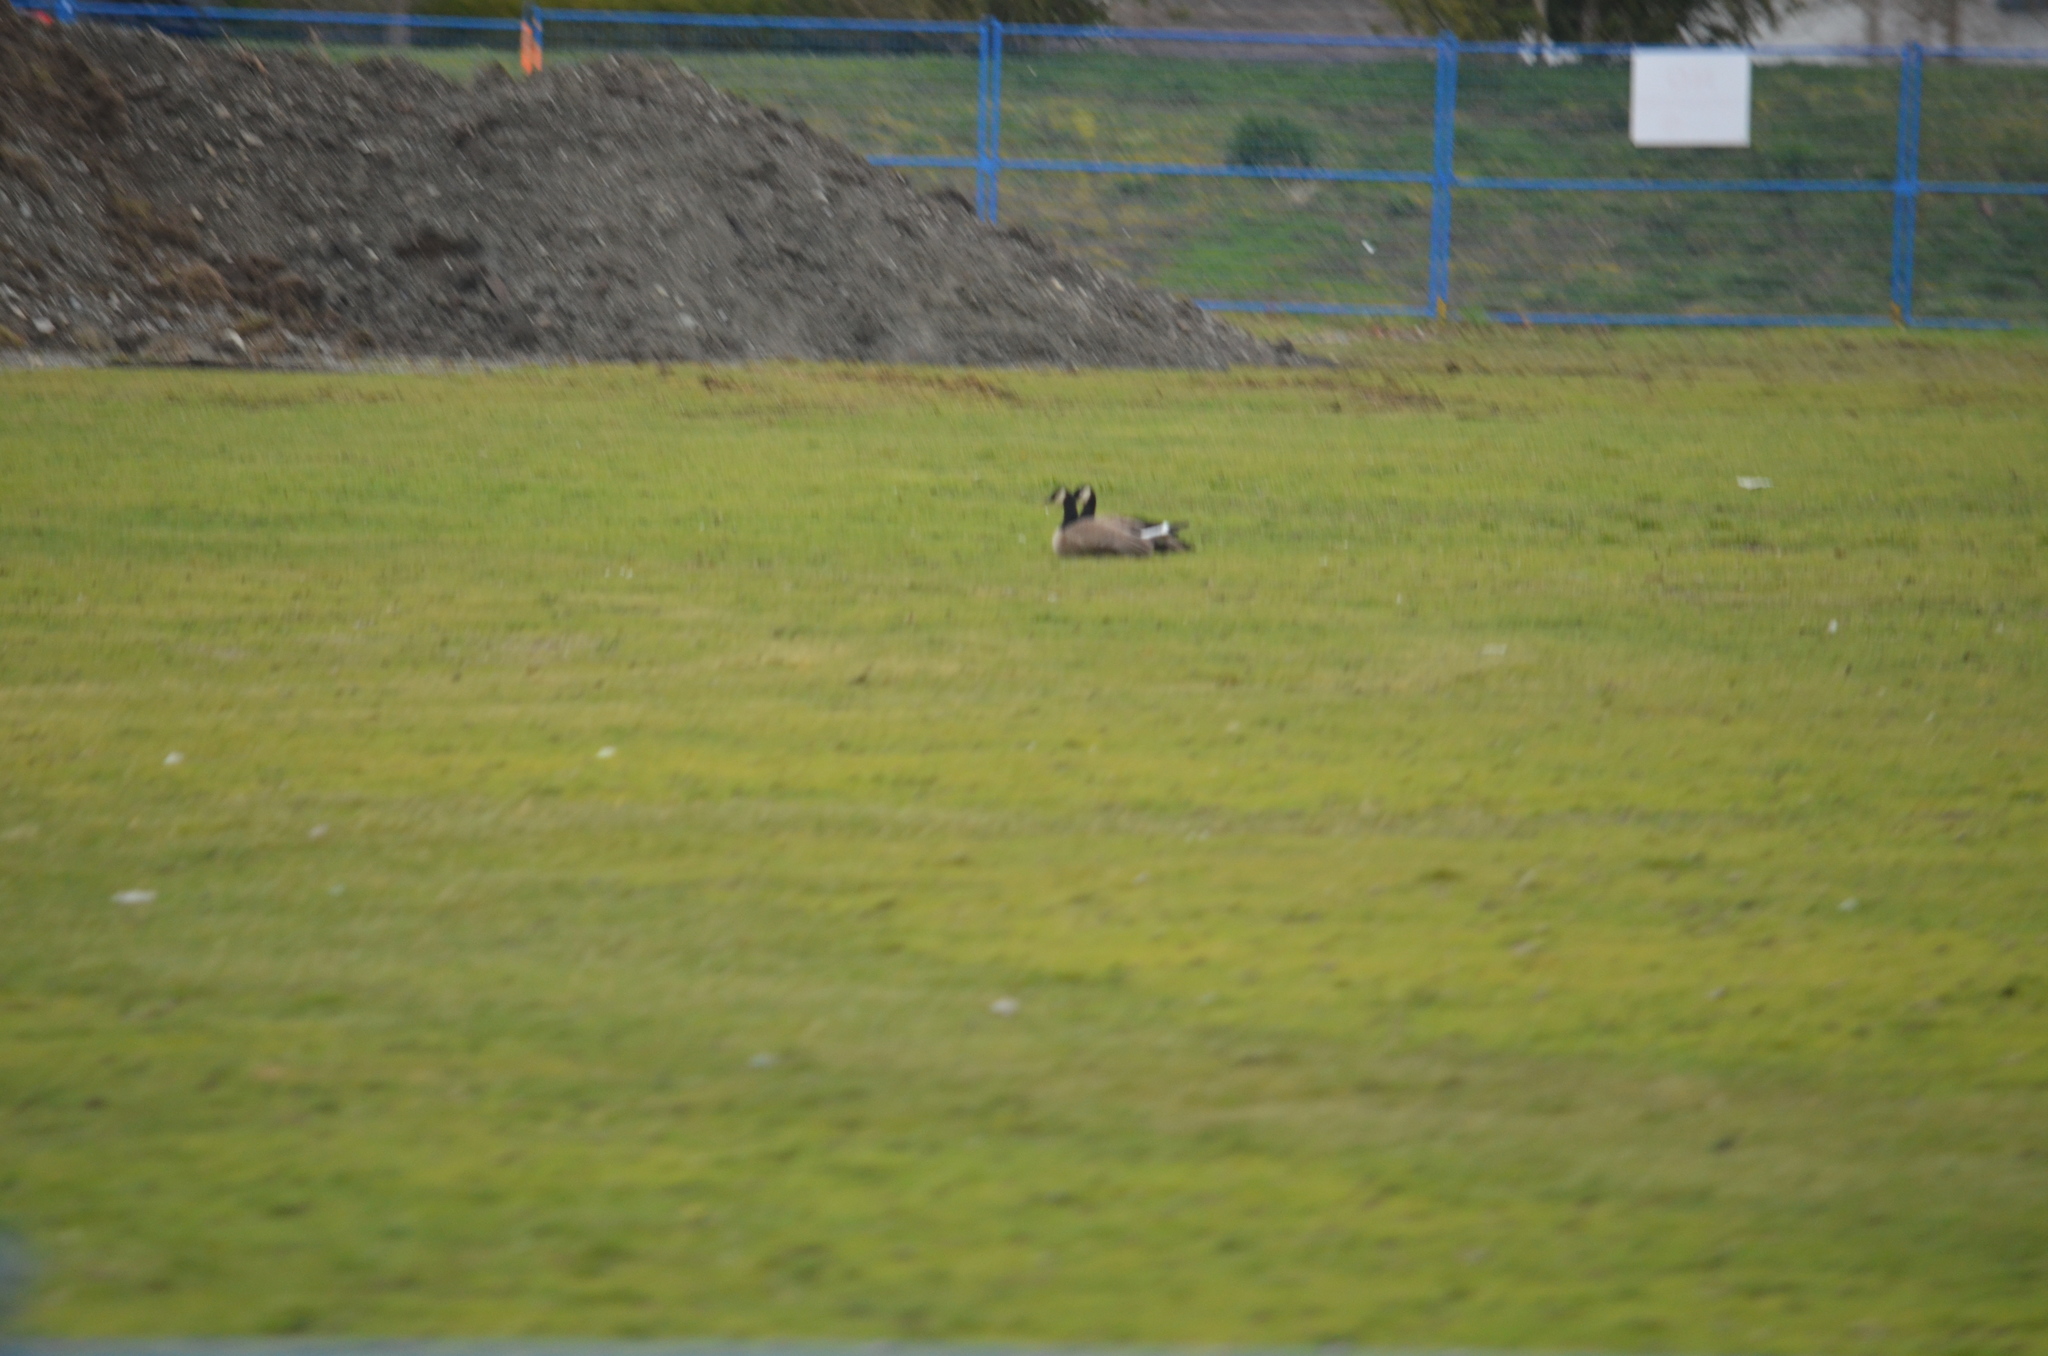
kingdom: Animalia
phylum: Chordata
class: Aves
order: Anseriformes
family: Anatidae
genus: Branta
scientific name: Branta canadensis
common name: Canada goose
